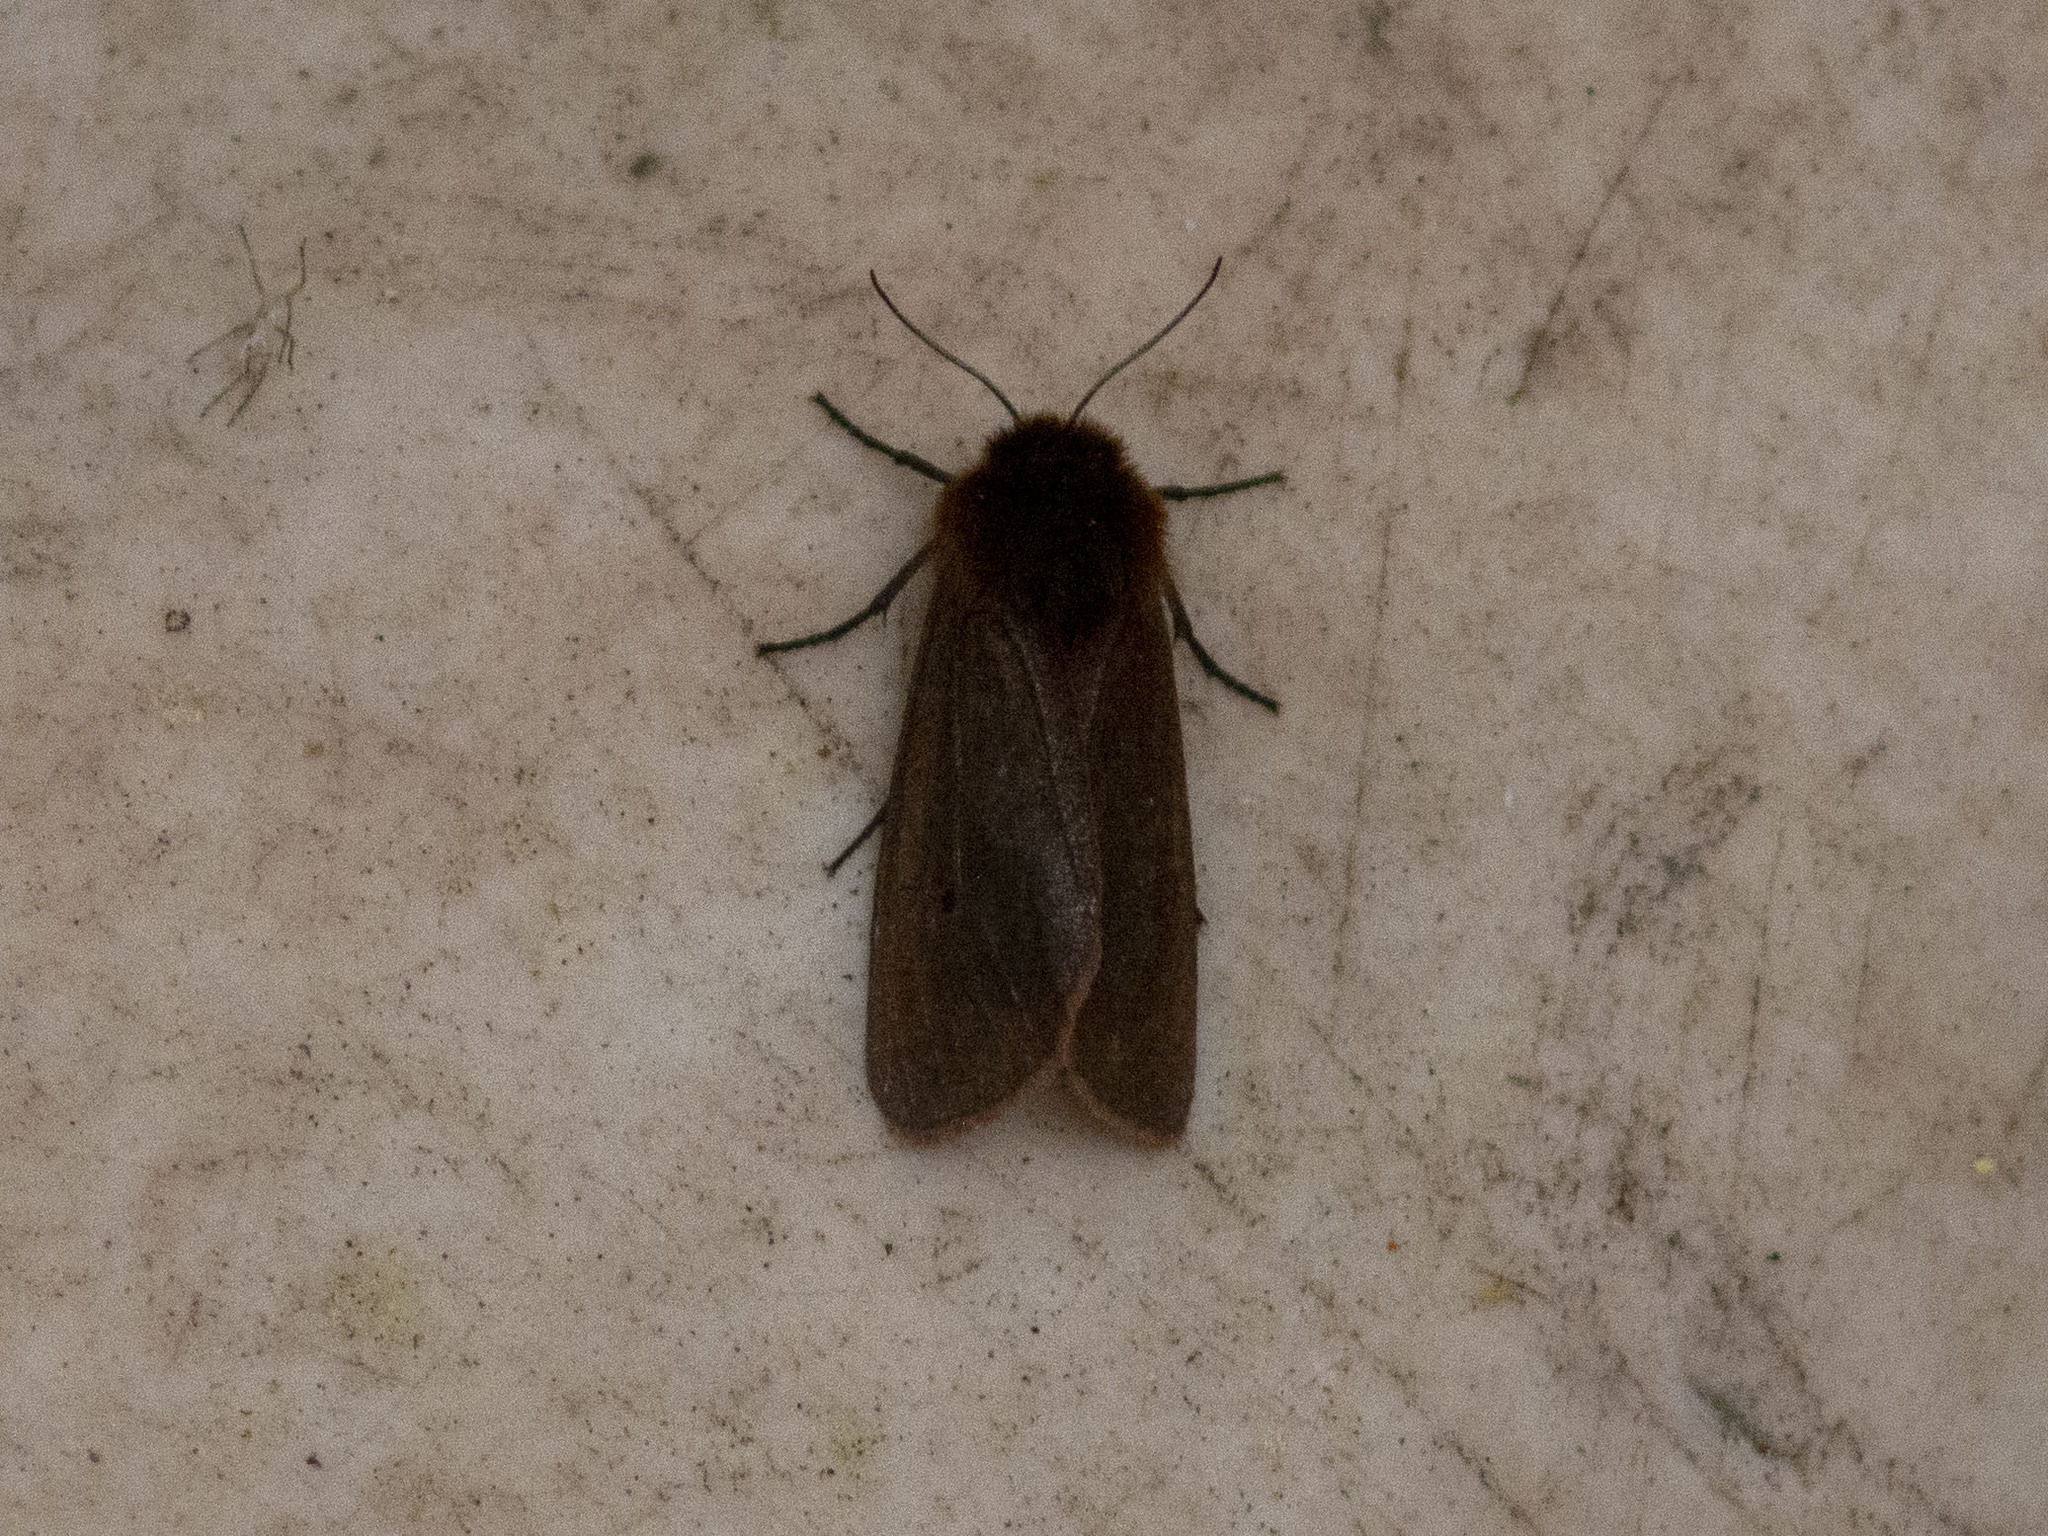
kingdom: Animalia
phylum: Arthropoda
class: Insecta
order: Lepidoptera
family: Erebidae
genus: Phragmatobia
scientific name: Phragmatobia fuliginosa
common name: Ruby tiger
